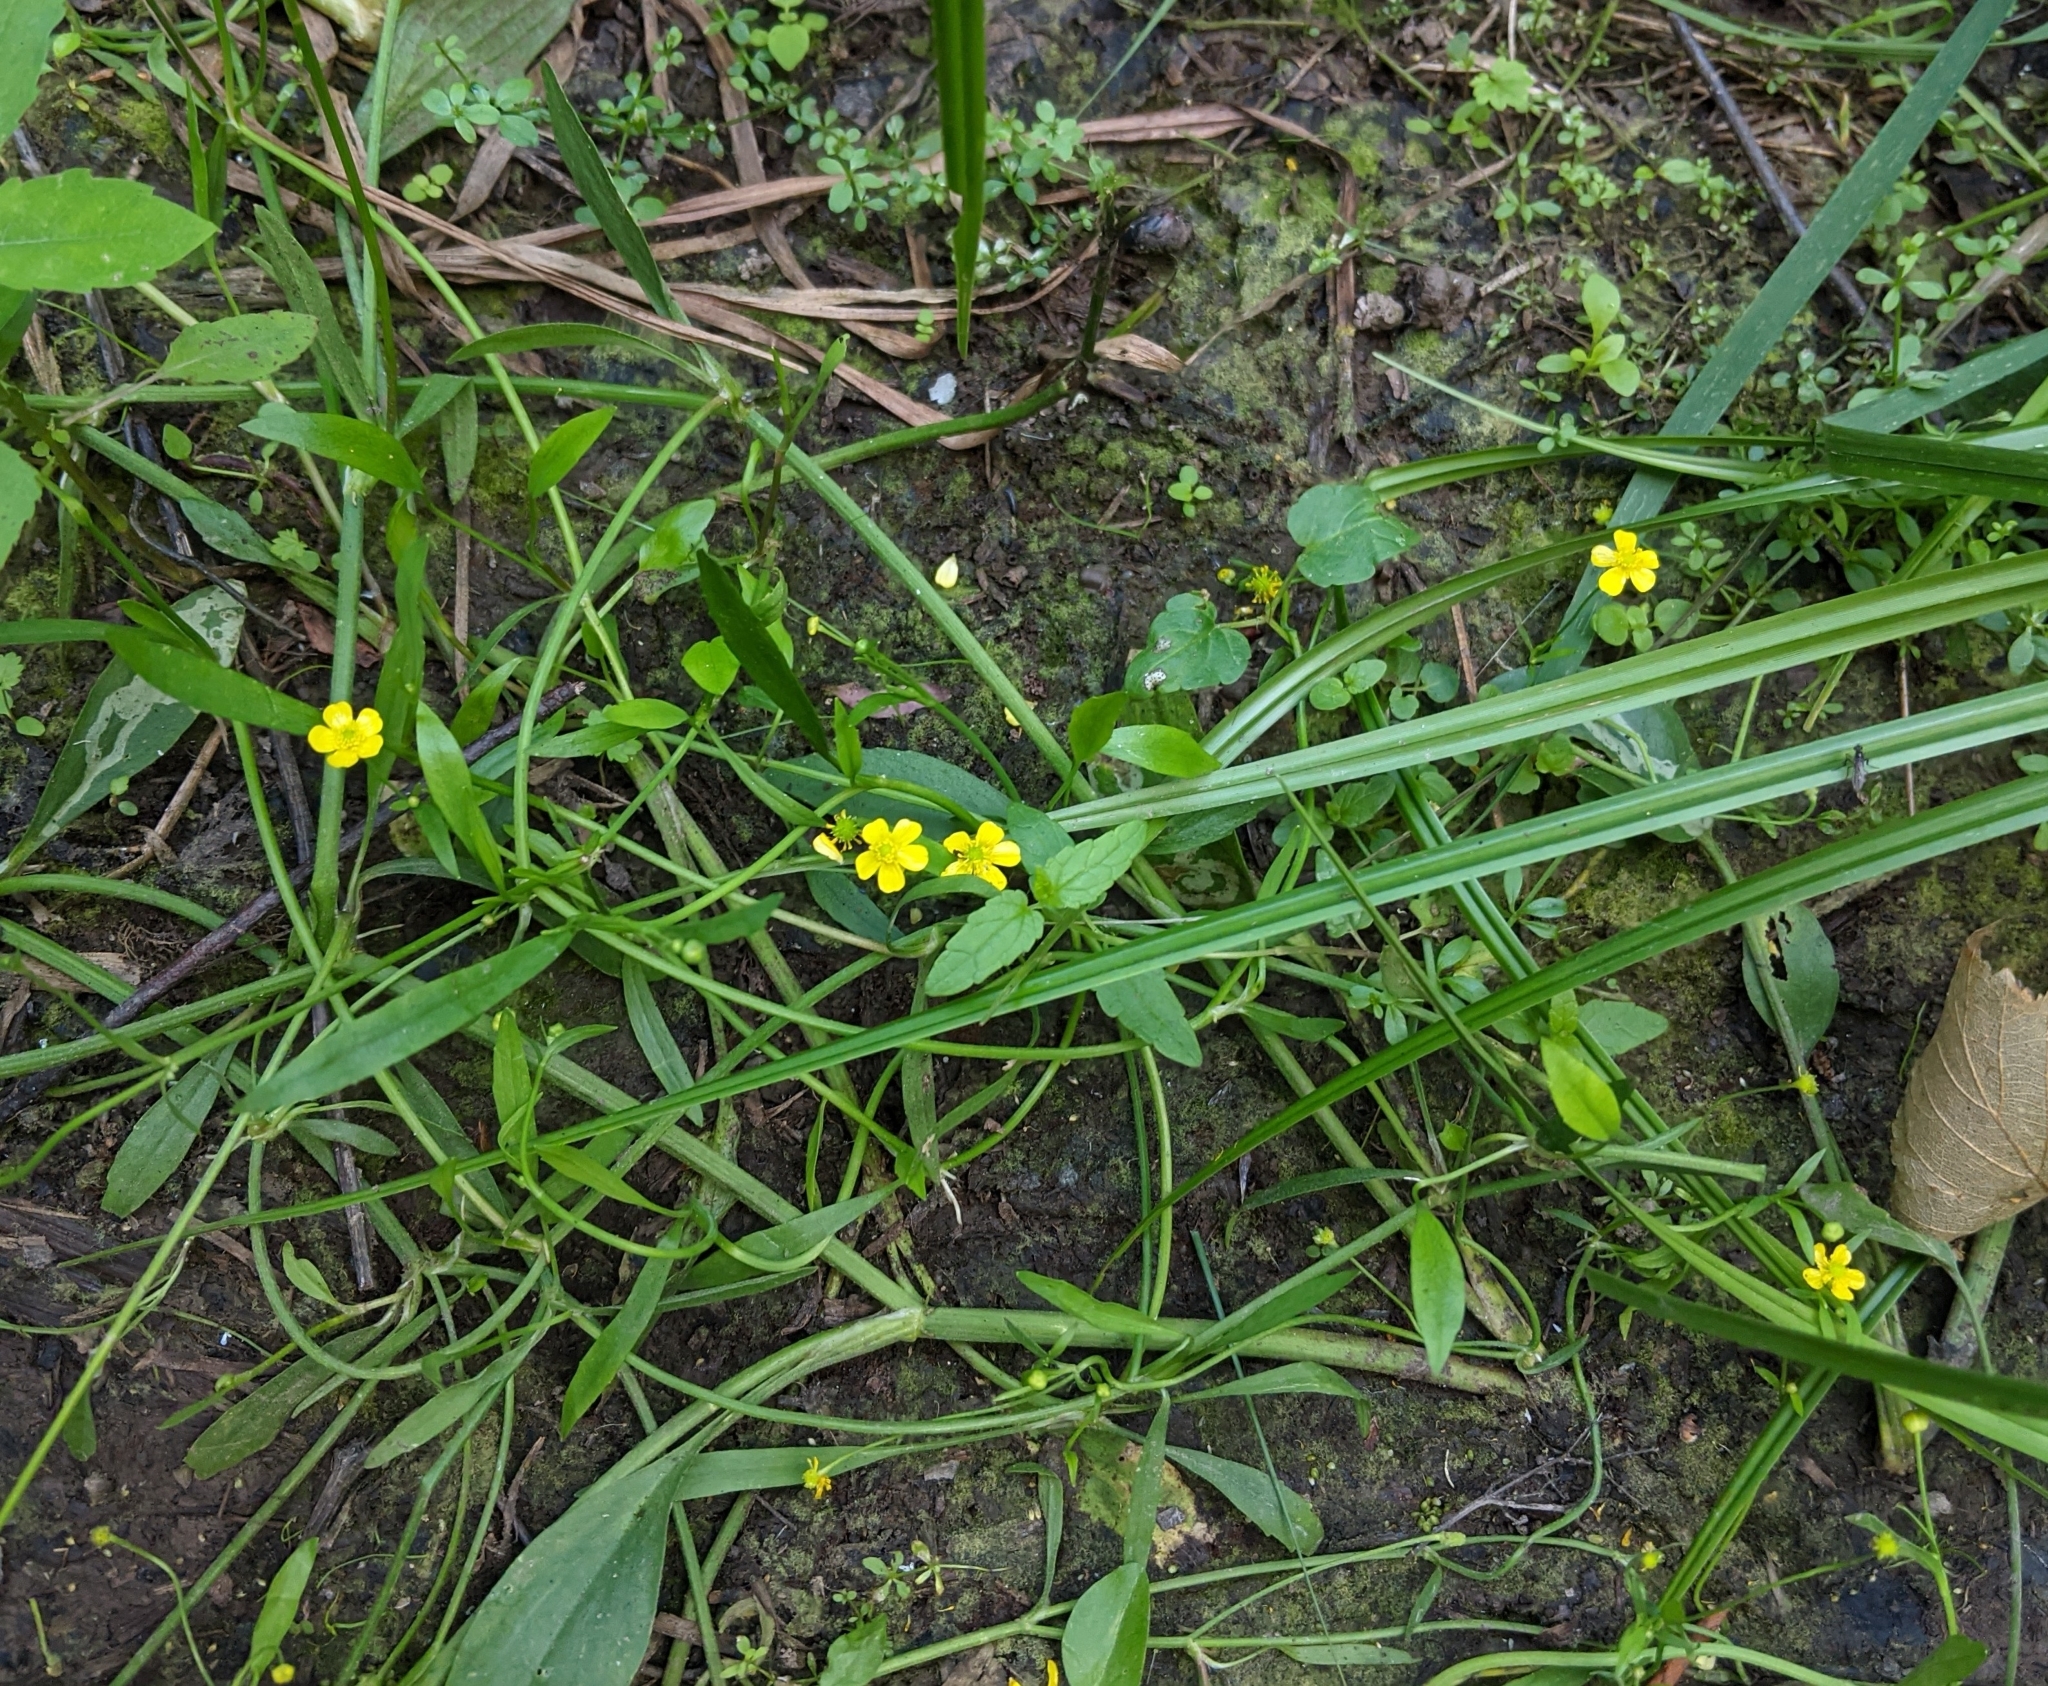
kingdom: Plantae
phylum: Tracheophyta
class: Magnoliopsida
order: Ranunculales
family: Ranunculaceae
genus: Ranunculus
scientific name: Ranunculus flammula
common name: Lesser spearwort
